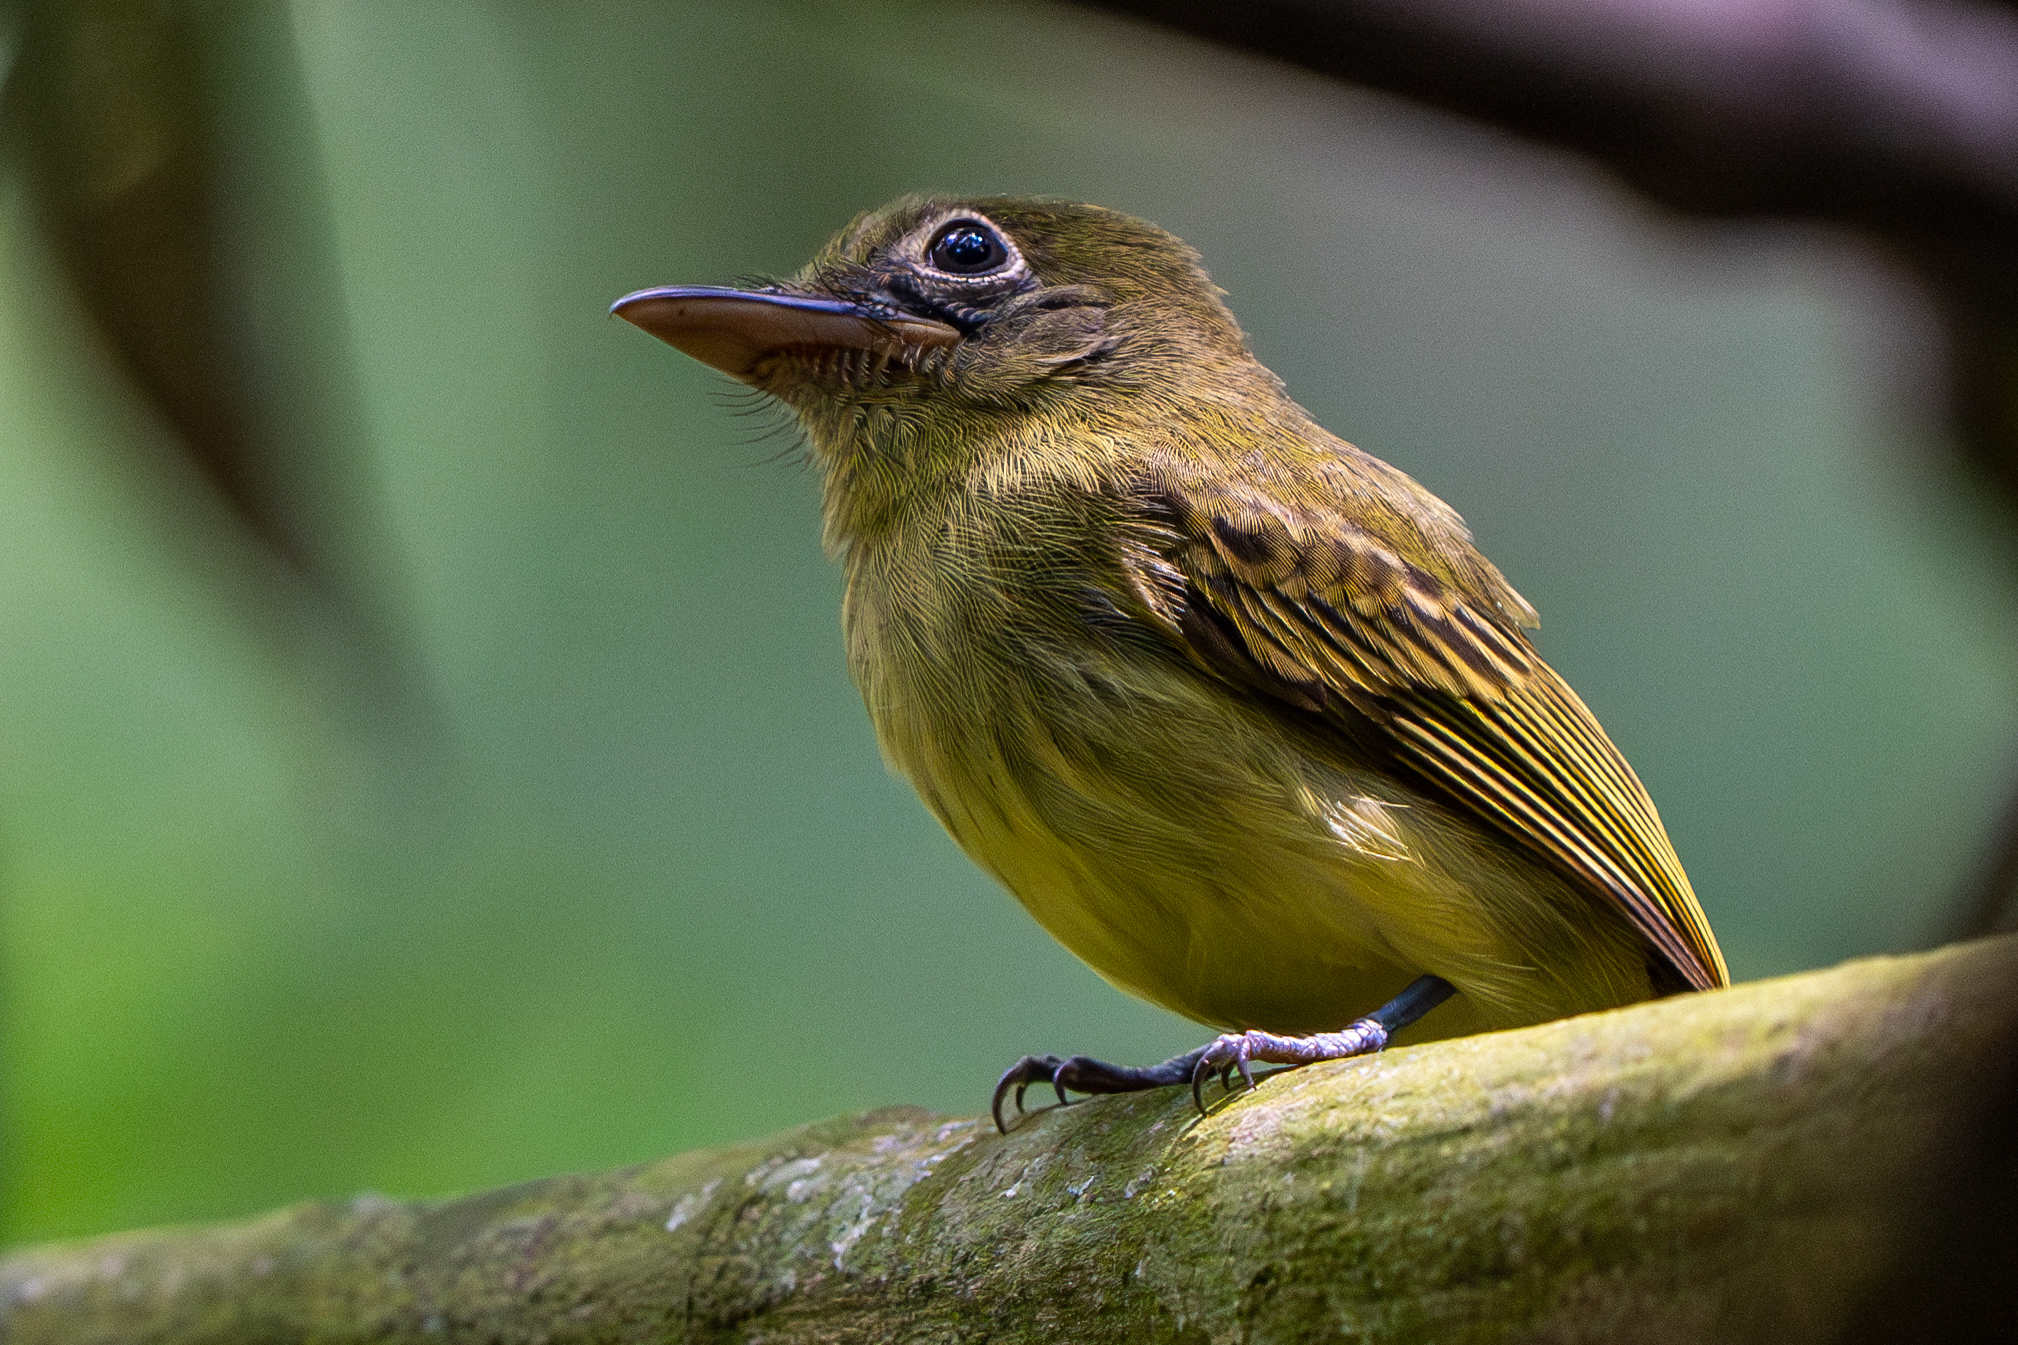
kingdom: Animalia
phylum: Chordata
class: Aves
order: Passeriformes
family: Tyrannidae
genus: Rhynchocyclus
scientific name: Rhynchocyclus olivaceus
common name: Olivaceous flatbill
